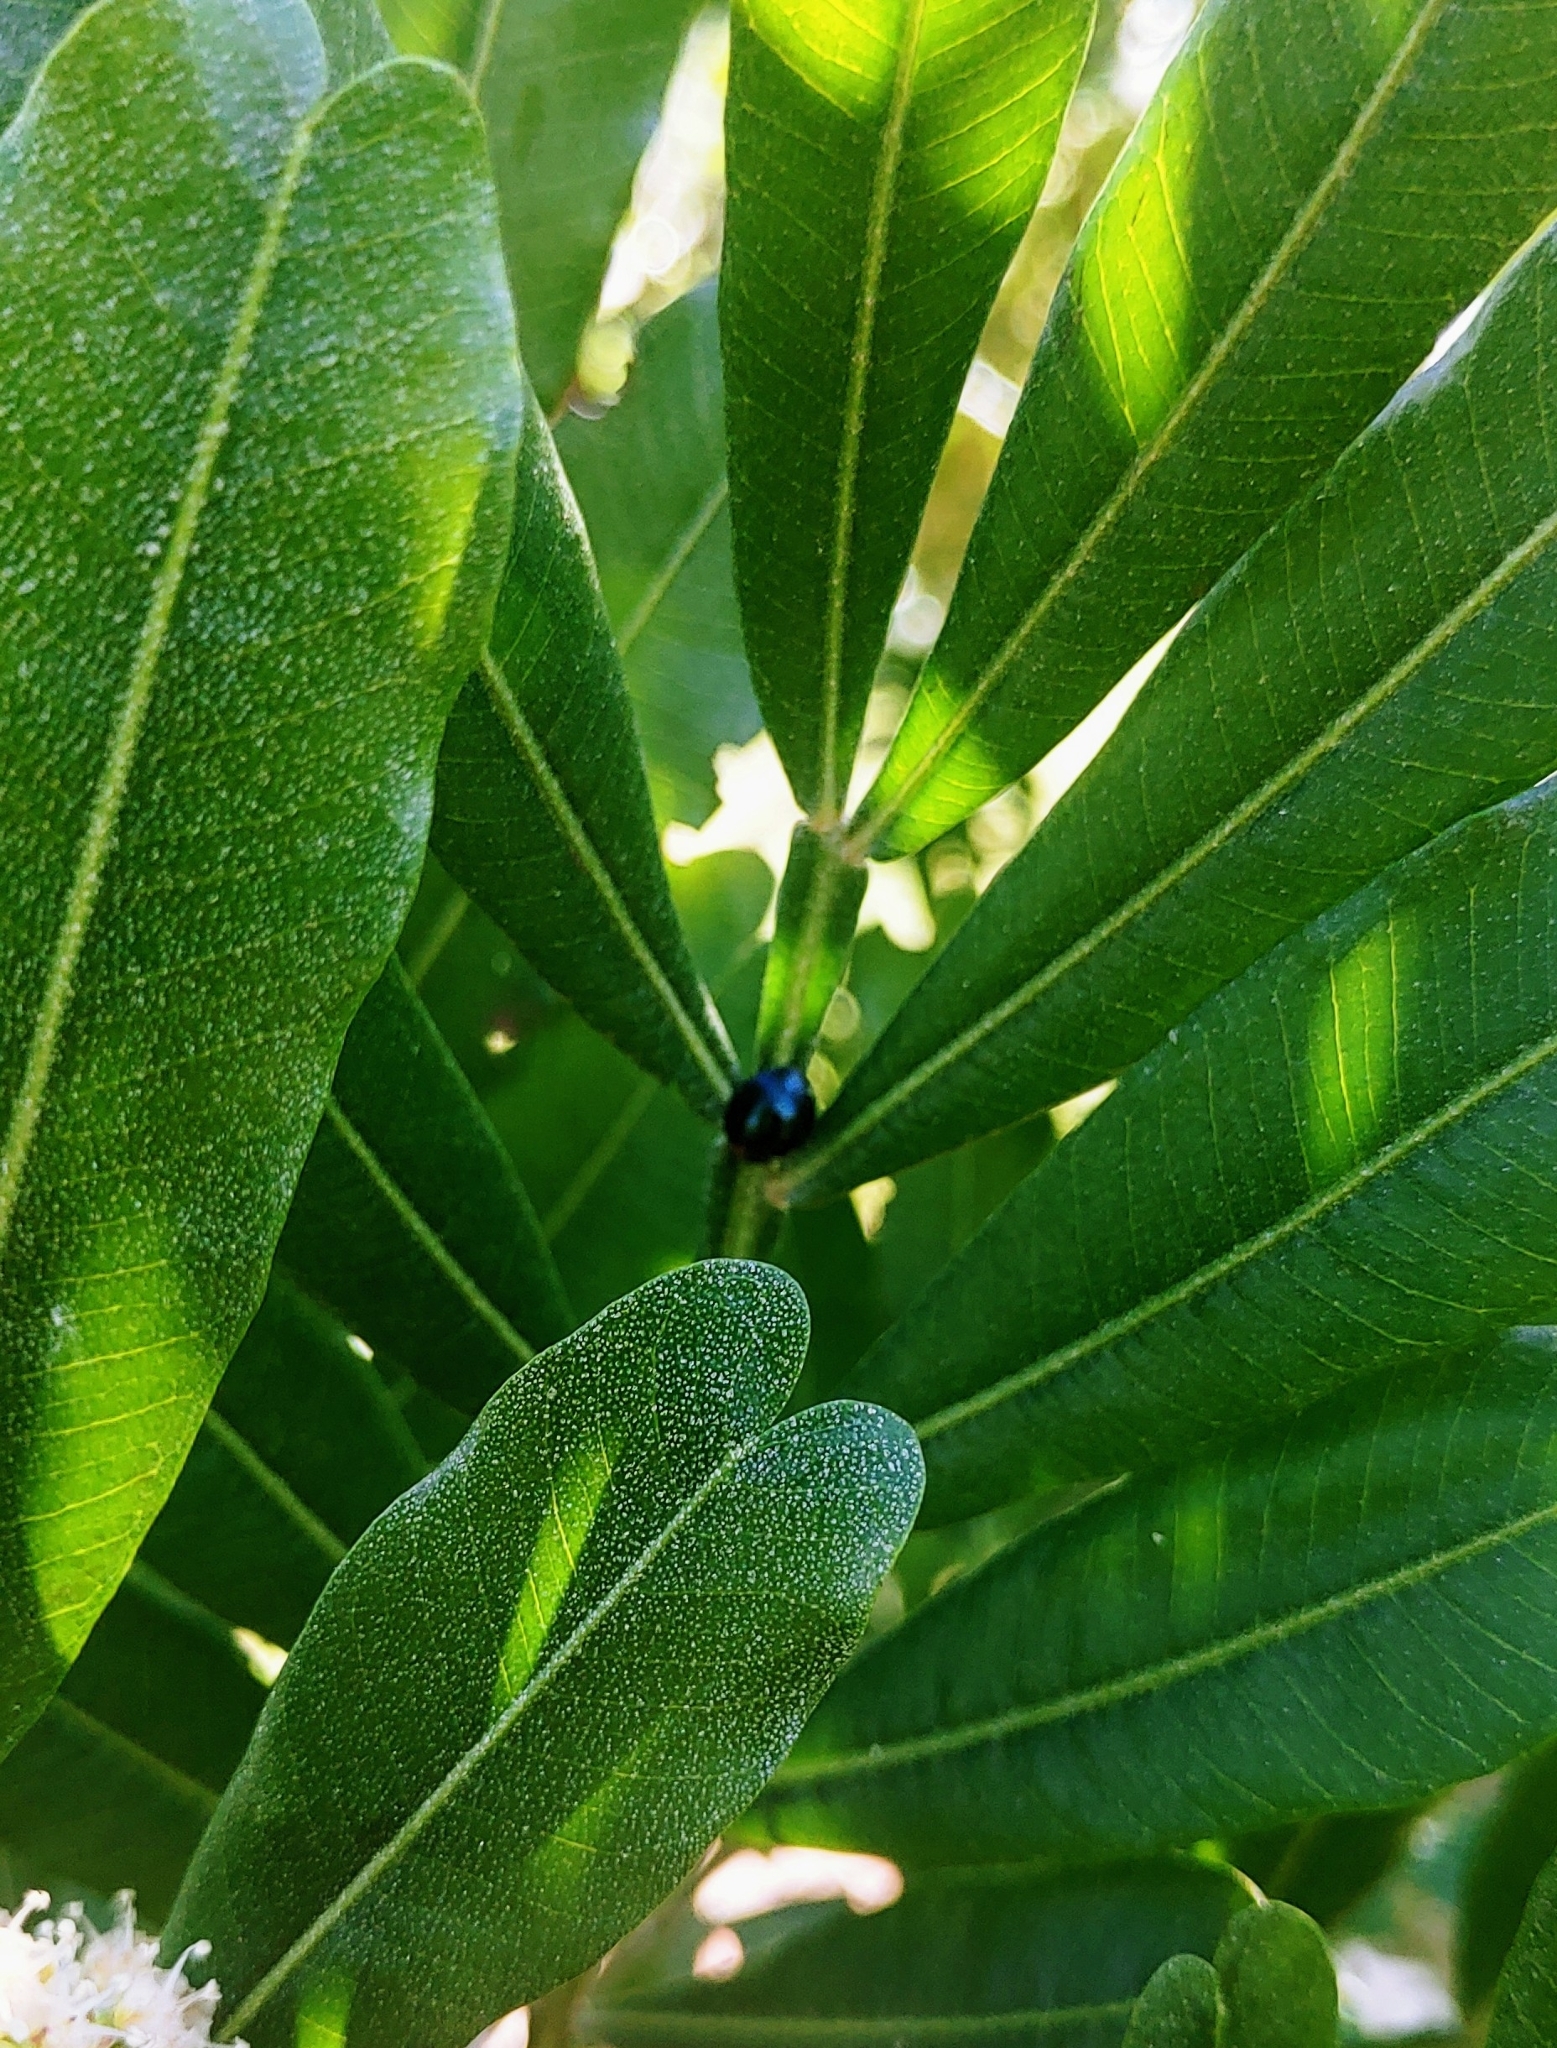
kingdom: Animalia
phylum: Arthropoda
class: Insecta
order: Coleoptera
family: Coccinellidae
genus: Curinus
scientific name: Curinus coeruleus
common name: Ladybird beetle
